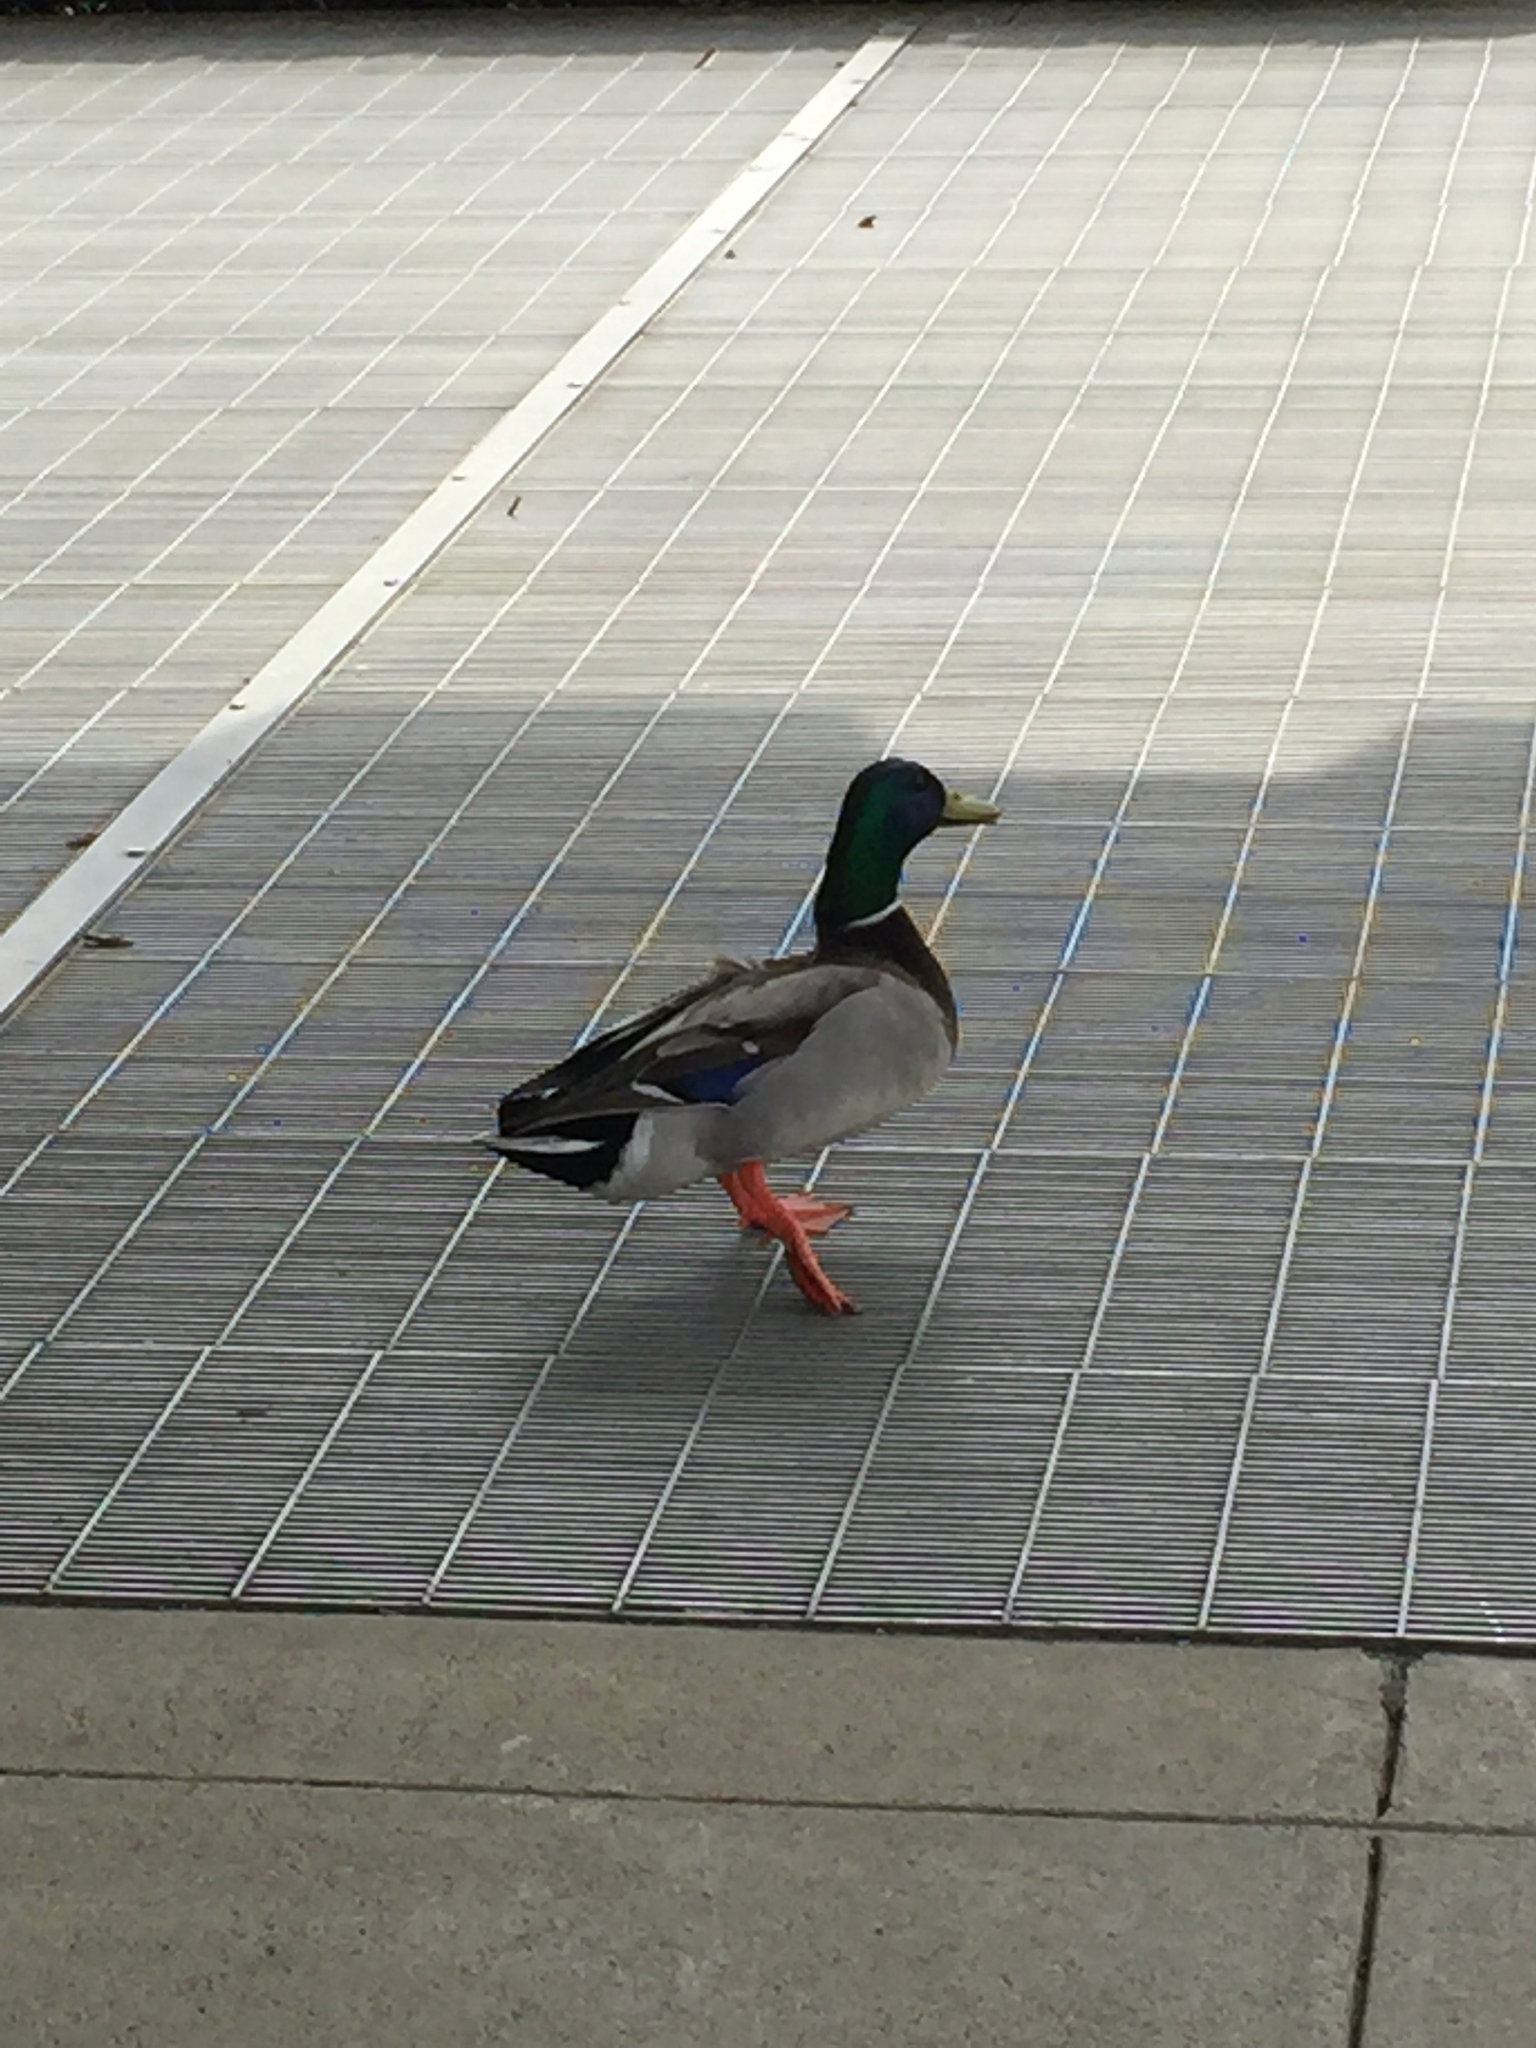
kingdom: Animalia
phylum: Chordata
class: Aves
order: Anseriformes
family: Anatidae
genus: Anas
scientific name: Anas platyrhynchos
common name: Mallard
